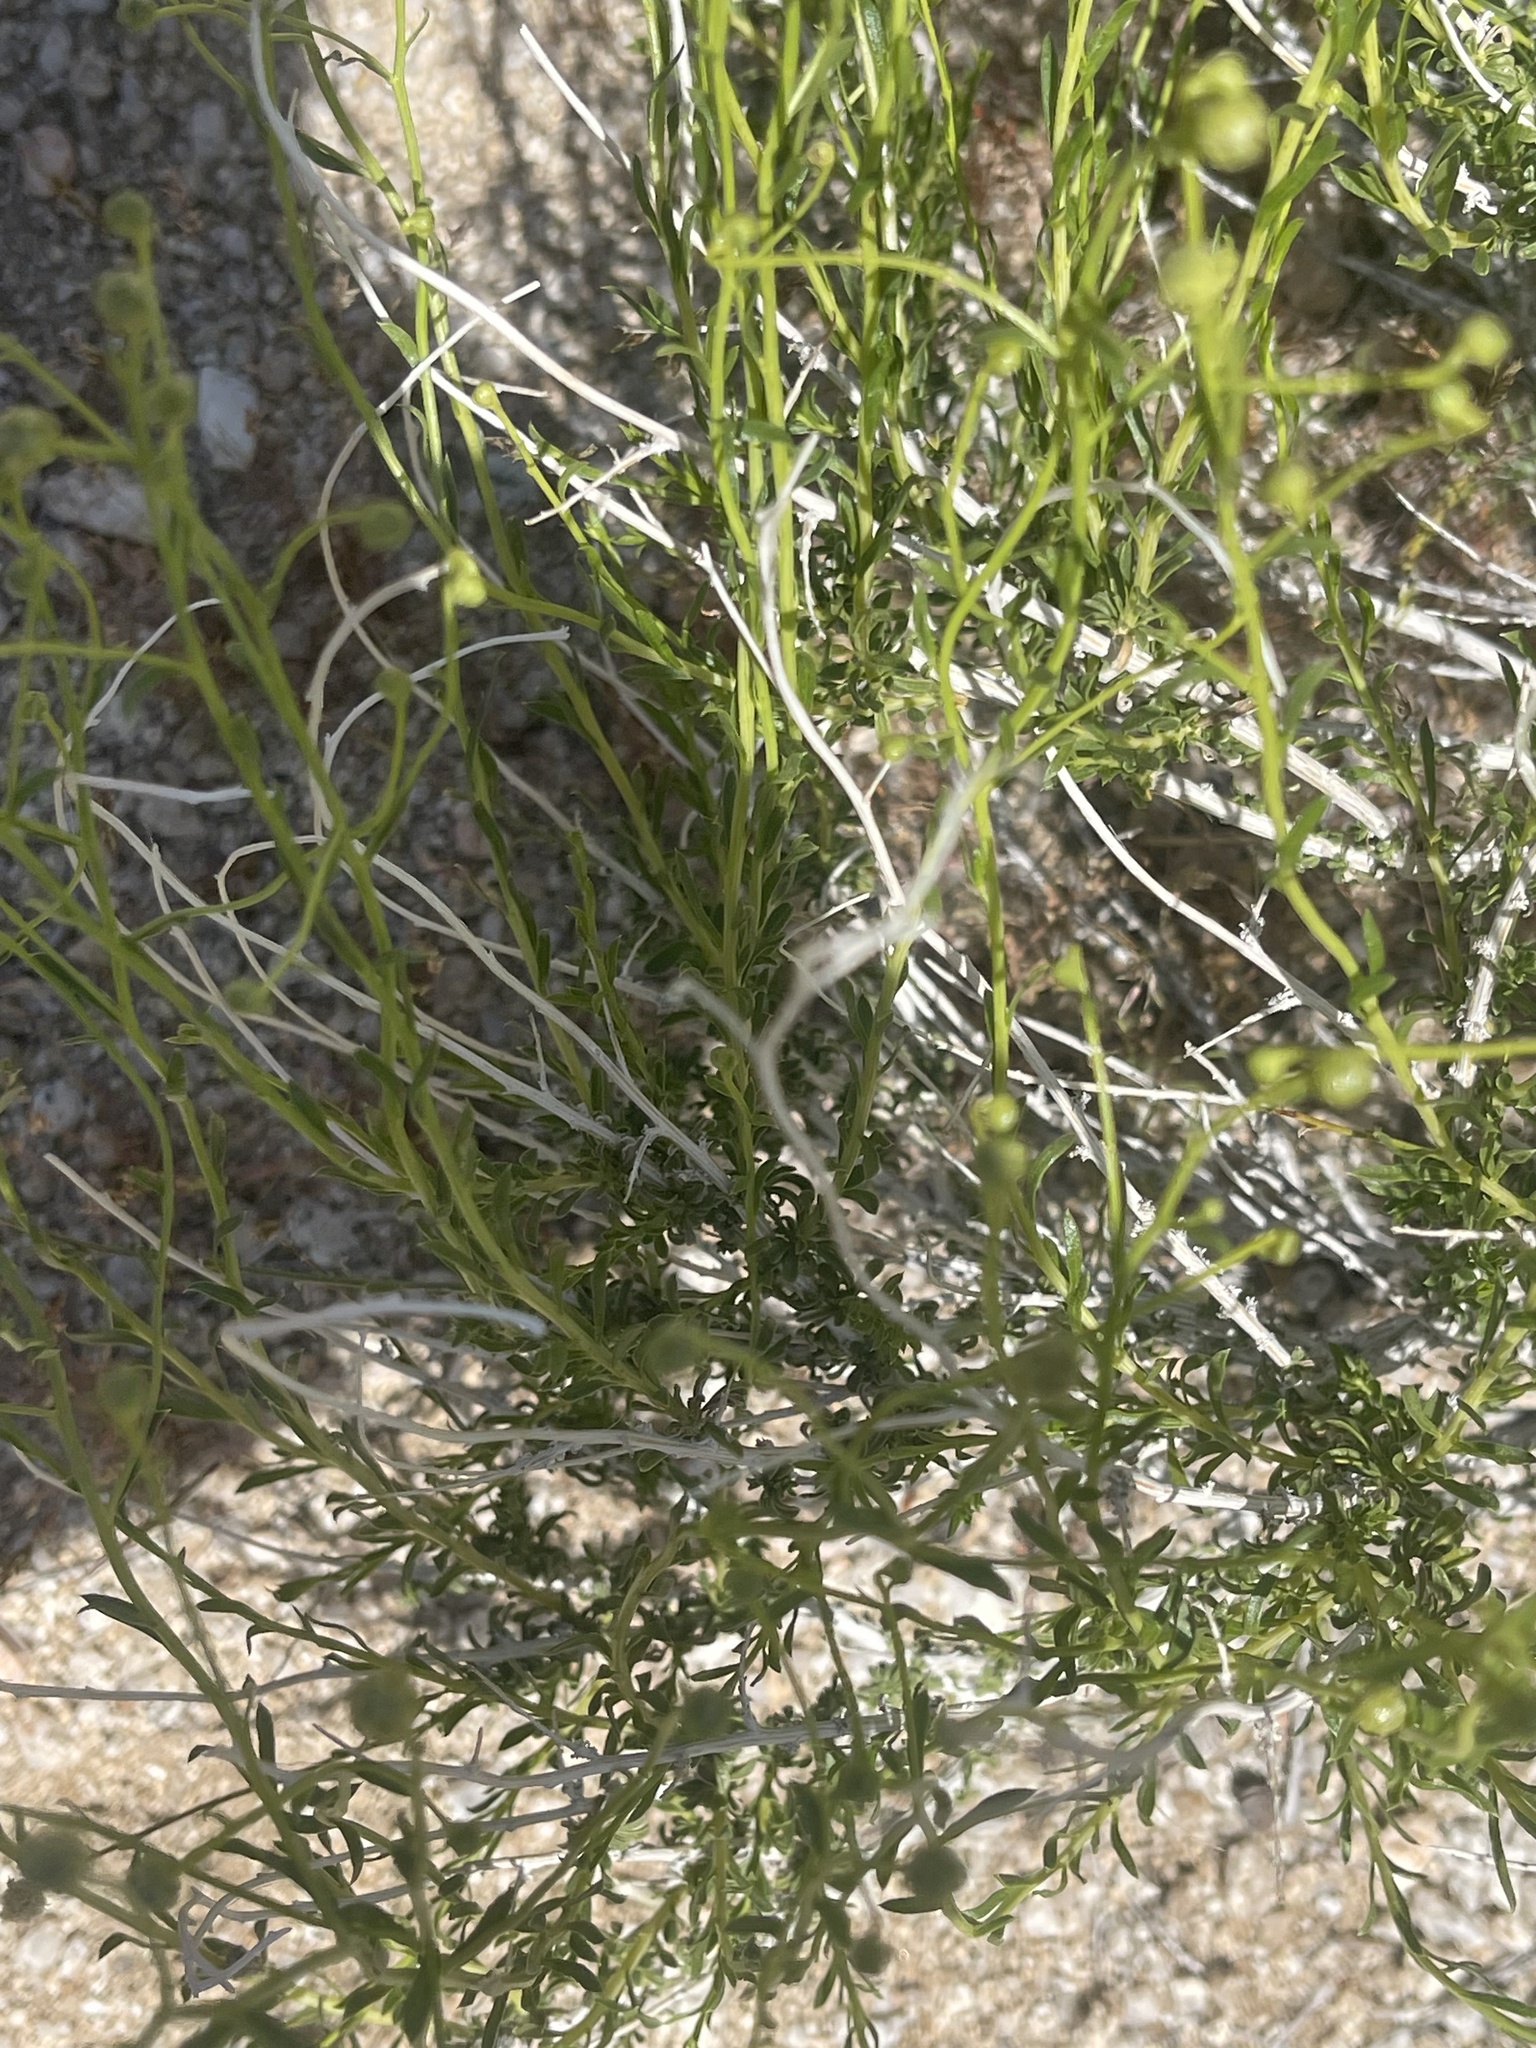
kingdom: Plantae
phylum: Tracheophyta
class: Magnoliopsida
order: Asterales
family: Asteraceae
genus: Acamptopappus
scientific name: Acamptopappus sphaerocephalus
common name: Goldenhead
